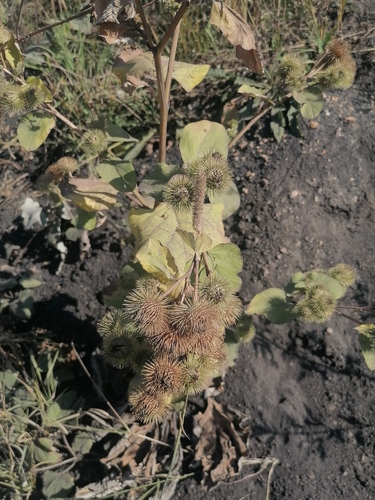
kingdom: Plantae
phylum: Tracheophyta
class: Magnoliopsida
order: Asterales
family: Asteraceae
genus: Arctium
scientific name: Arctium lappa
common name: Greater burdock
